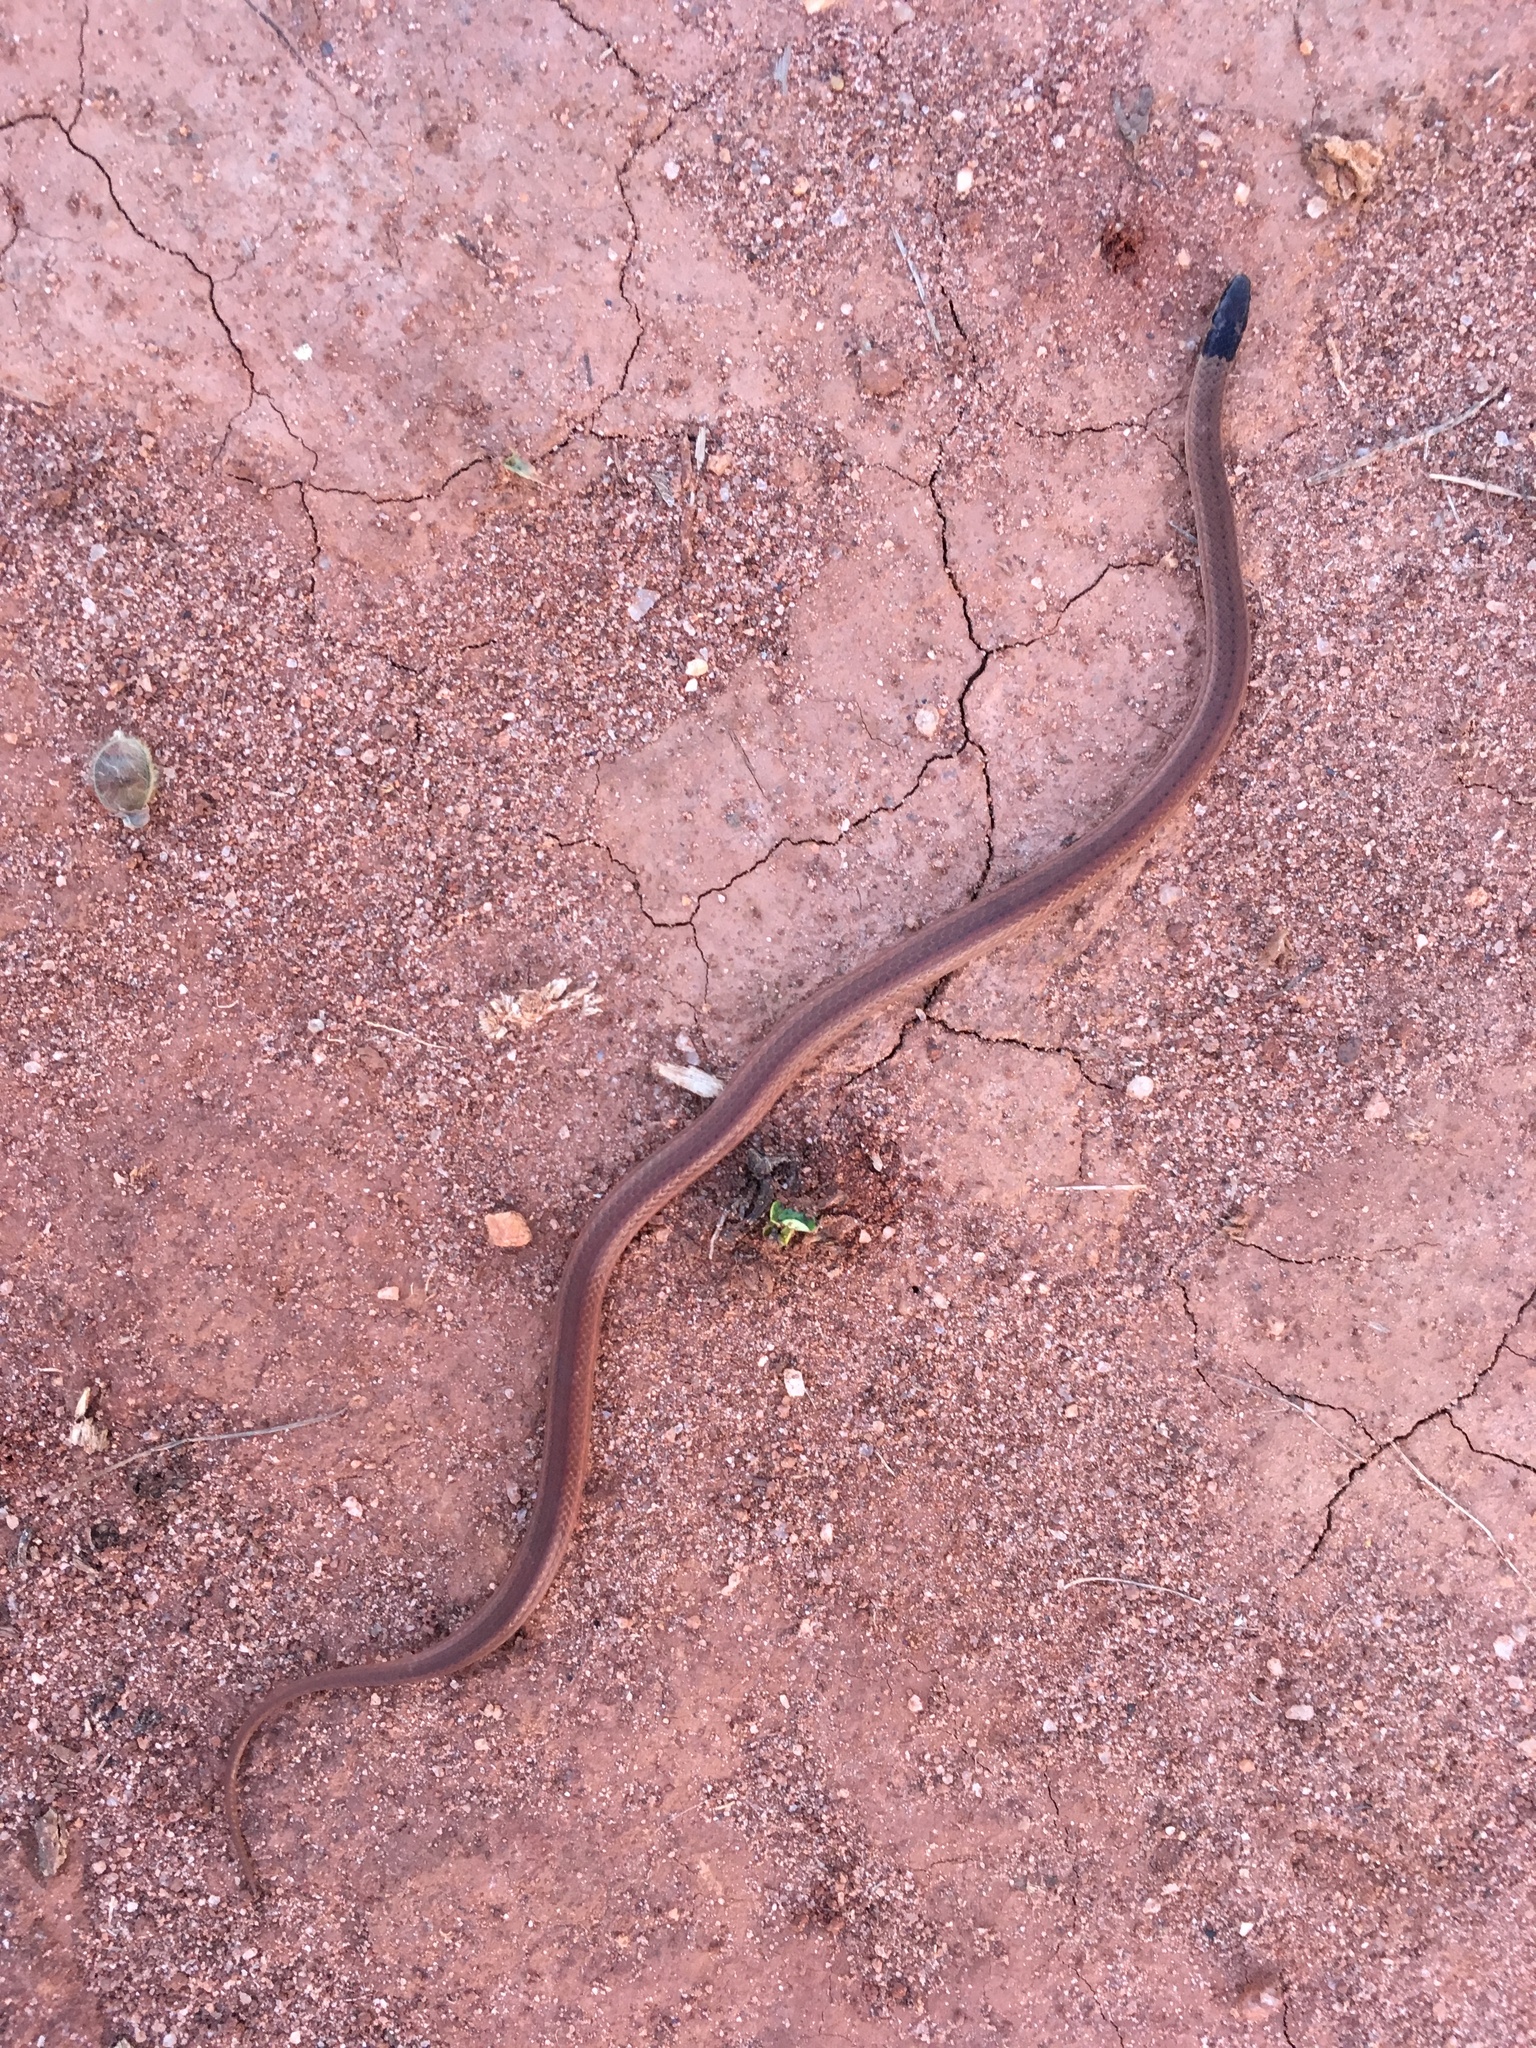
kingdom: Animalia
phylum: Chordata
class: Squamata
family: Atractaspididae
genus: Aparallactus
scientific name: Aparallactus capensis
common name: Cape centipede eater
